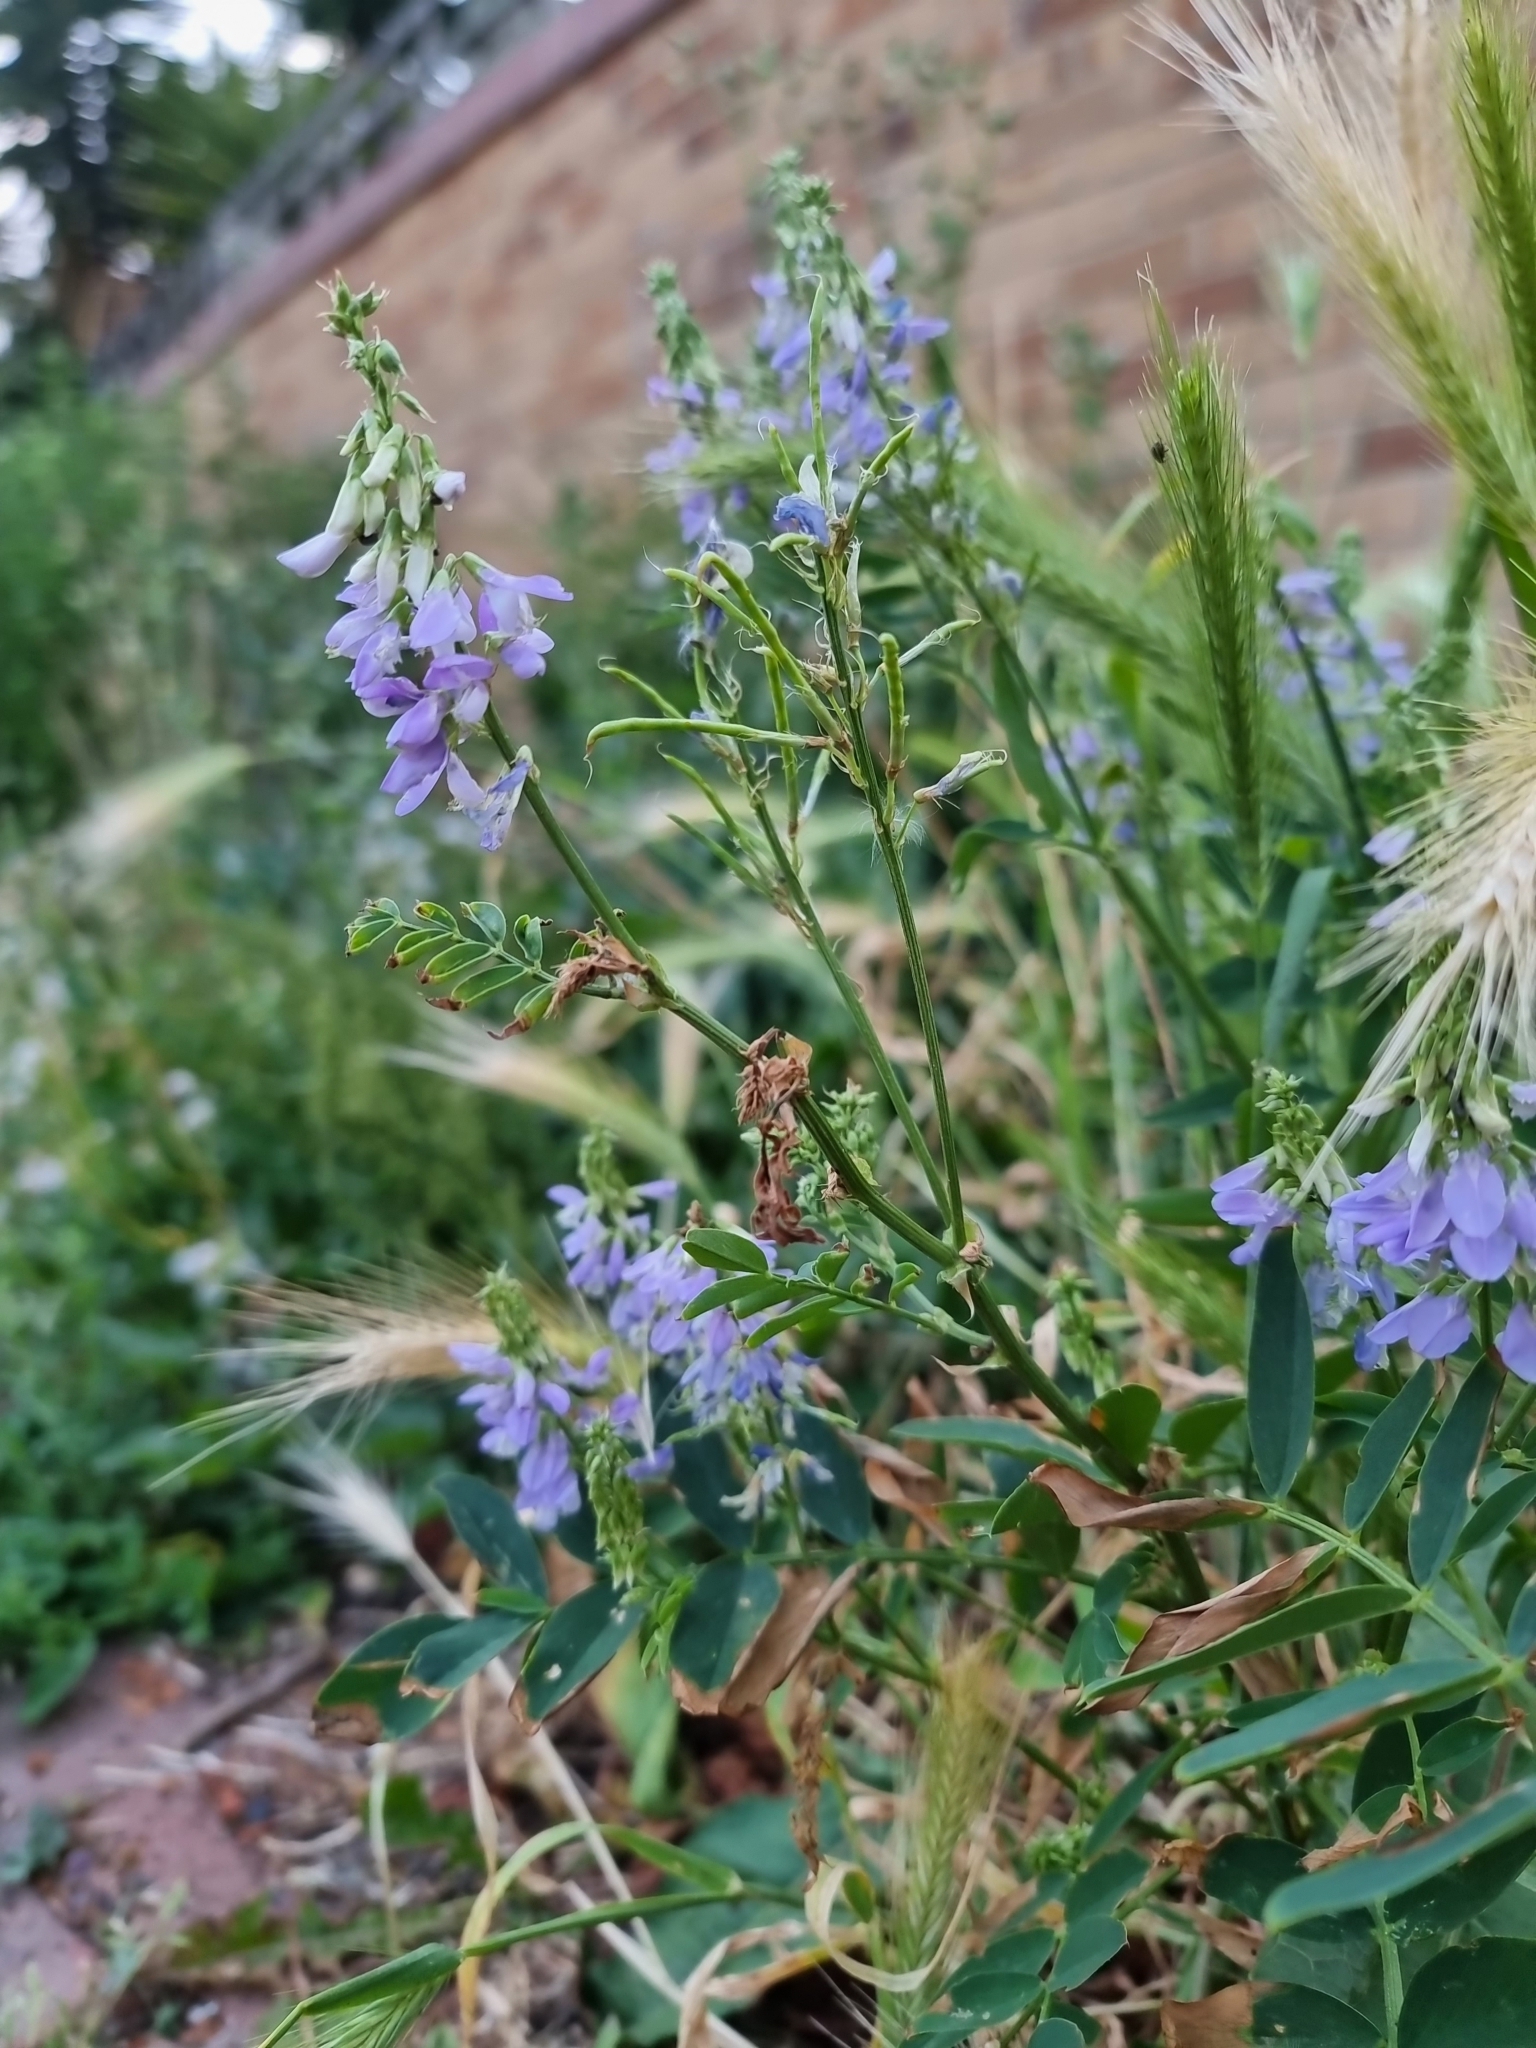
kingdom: Plantae
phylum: Tracheophyta
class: Magnoliopsida
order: Fabales
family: Fabaceae
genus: Galega
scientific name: Galega officinalis
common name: Goat's-rue
